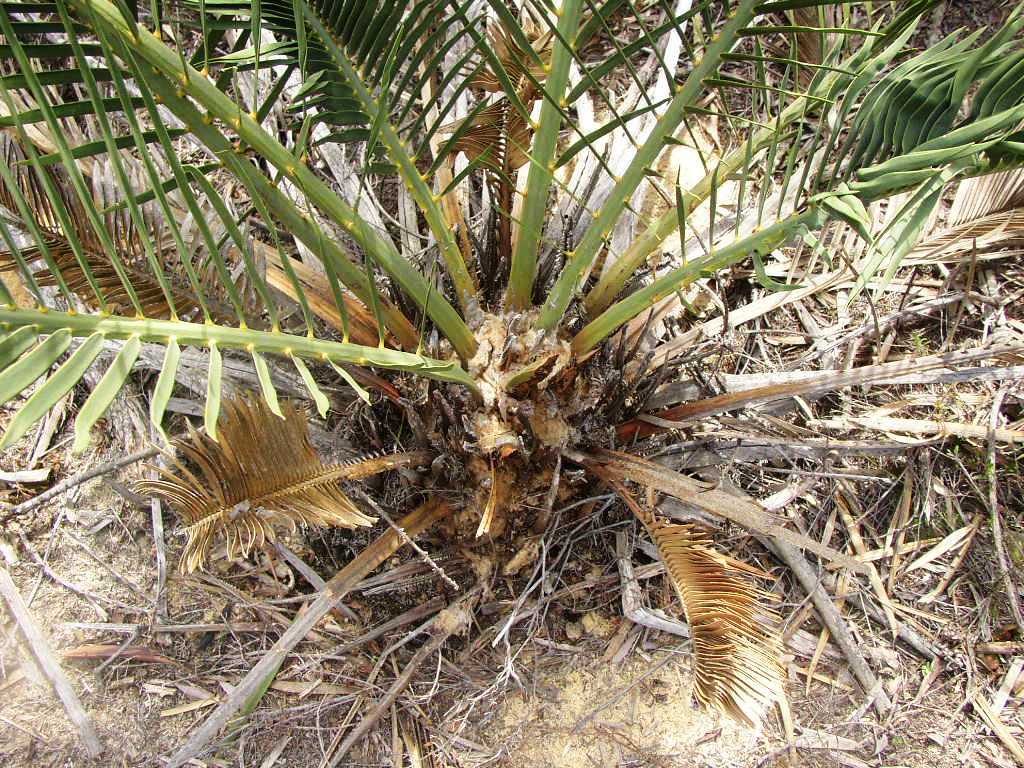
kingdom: Plantae
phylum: Tracheophyta
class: Cycadopsida
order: Cycadales
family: Zamiaceae
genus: Macrozamia
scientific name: Macrozamia fraseri
